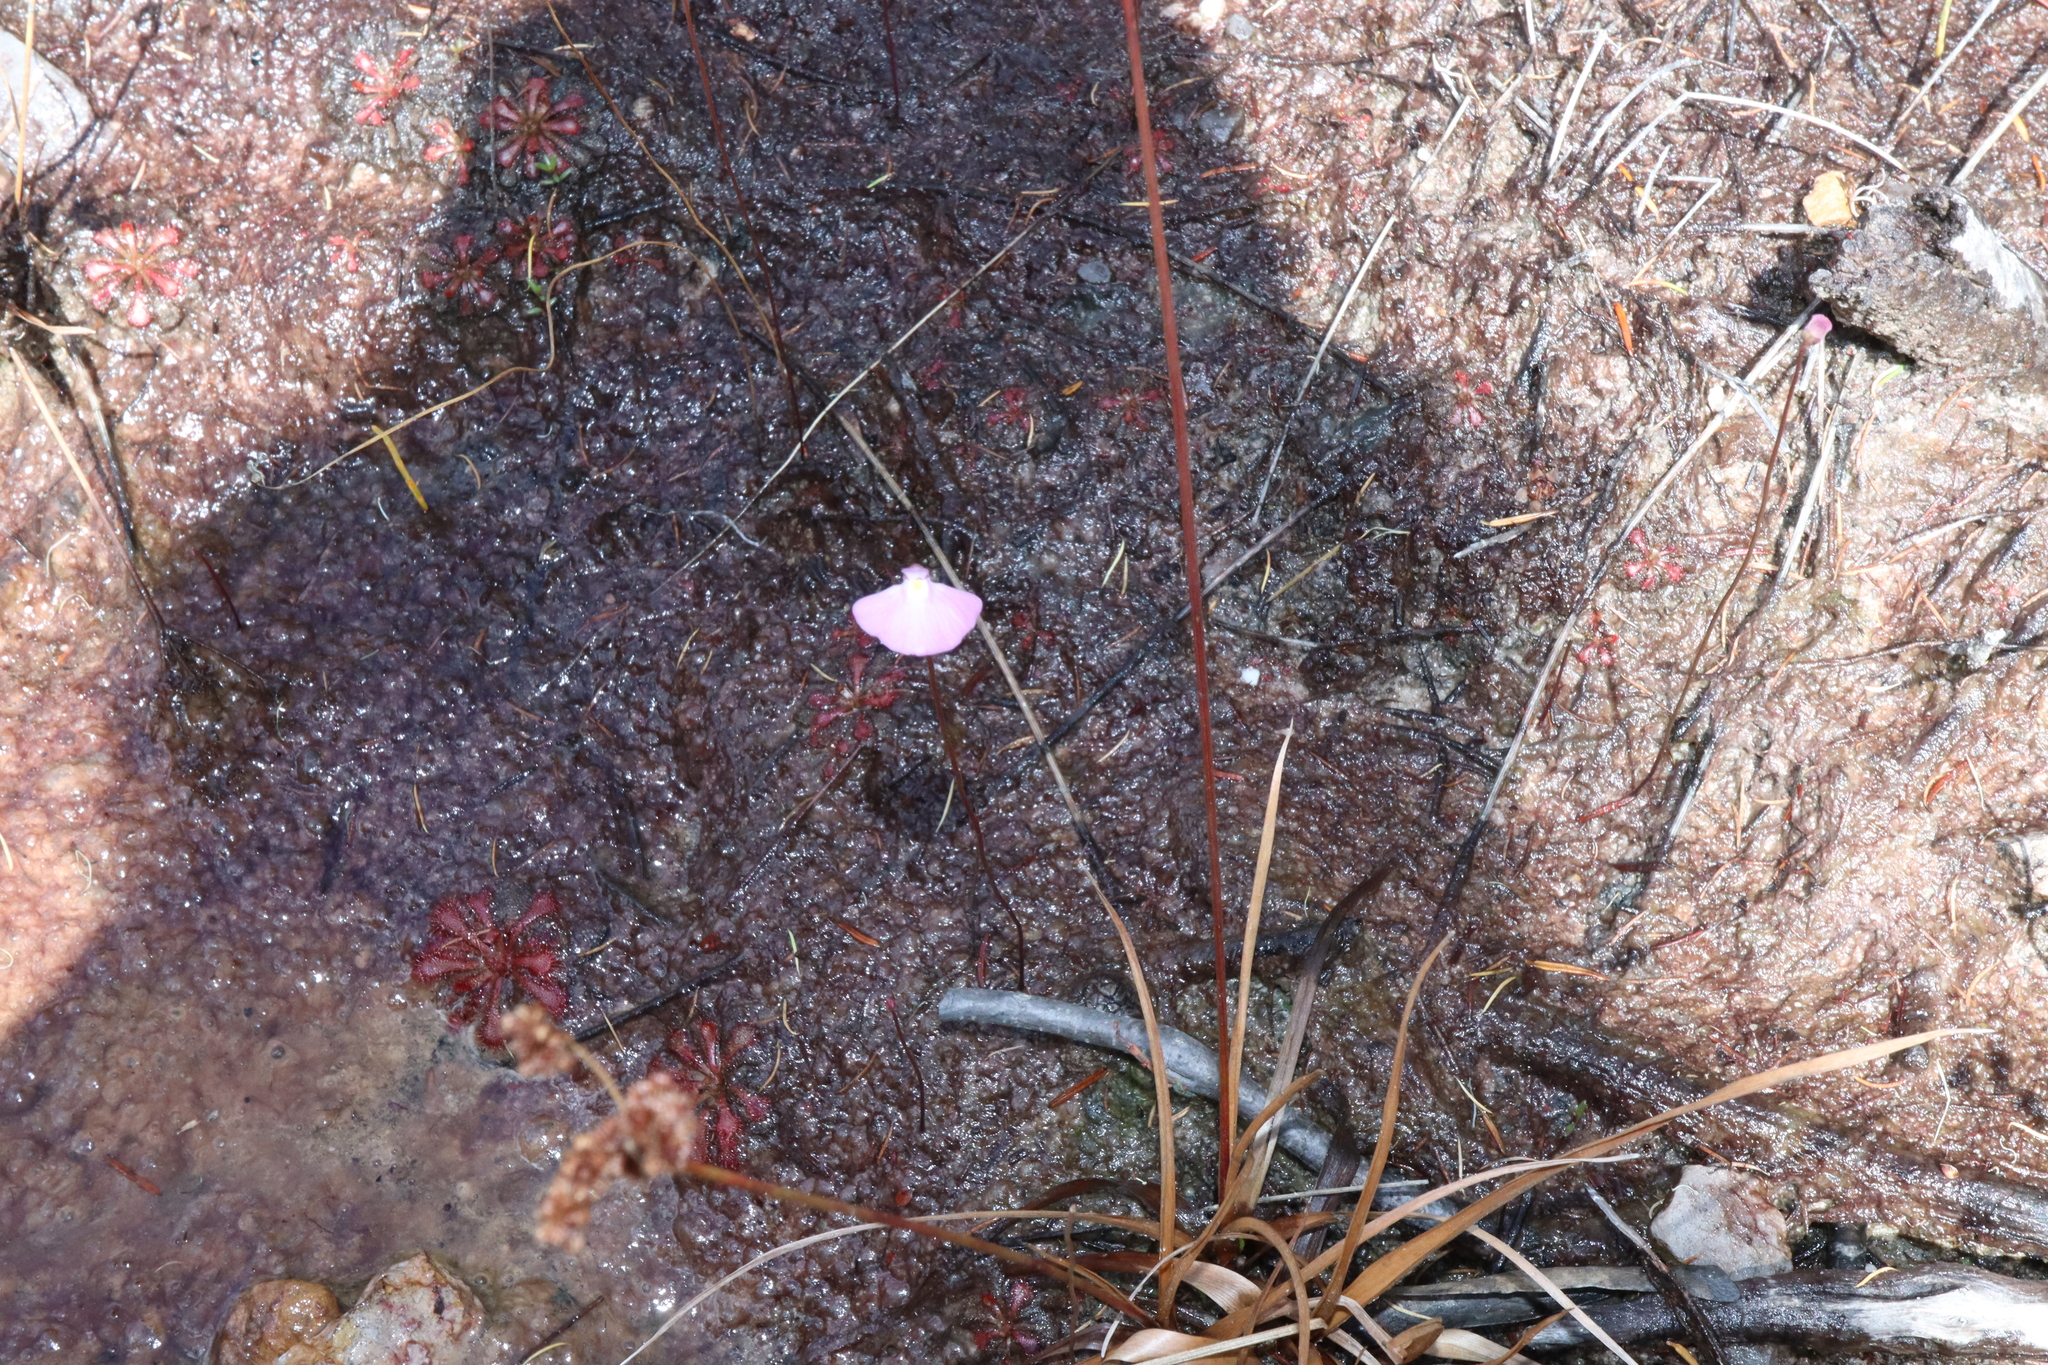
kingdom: Plantae
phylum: Tracheophyta
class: Magnoliopsida
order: Lamiales
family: Lentibulariaceae
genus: Utricularia
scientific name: Utricularia uniflora
